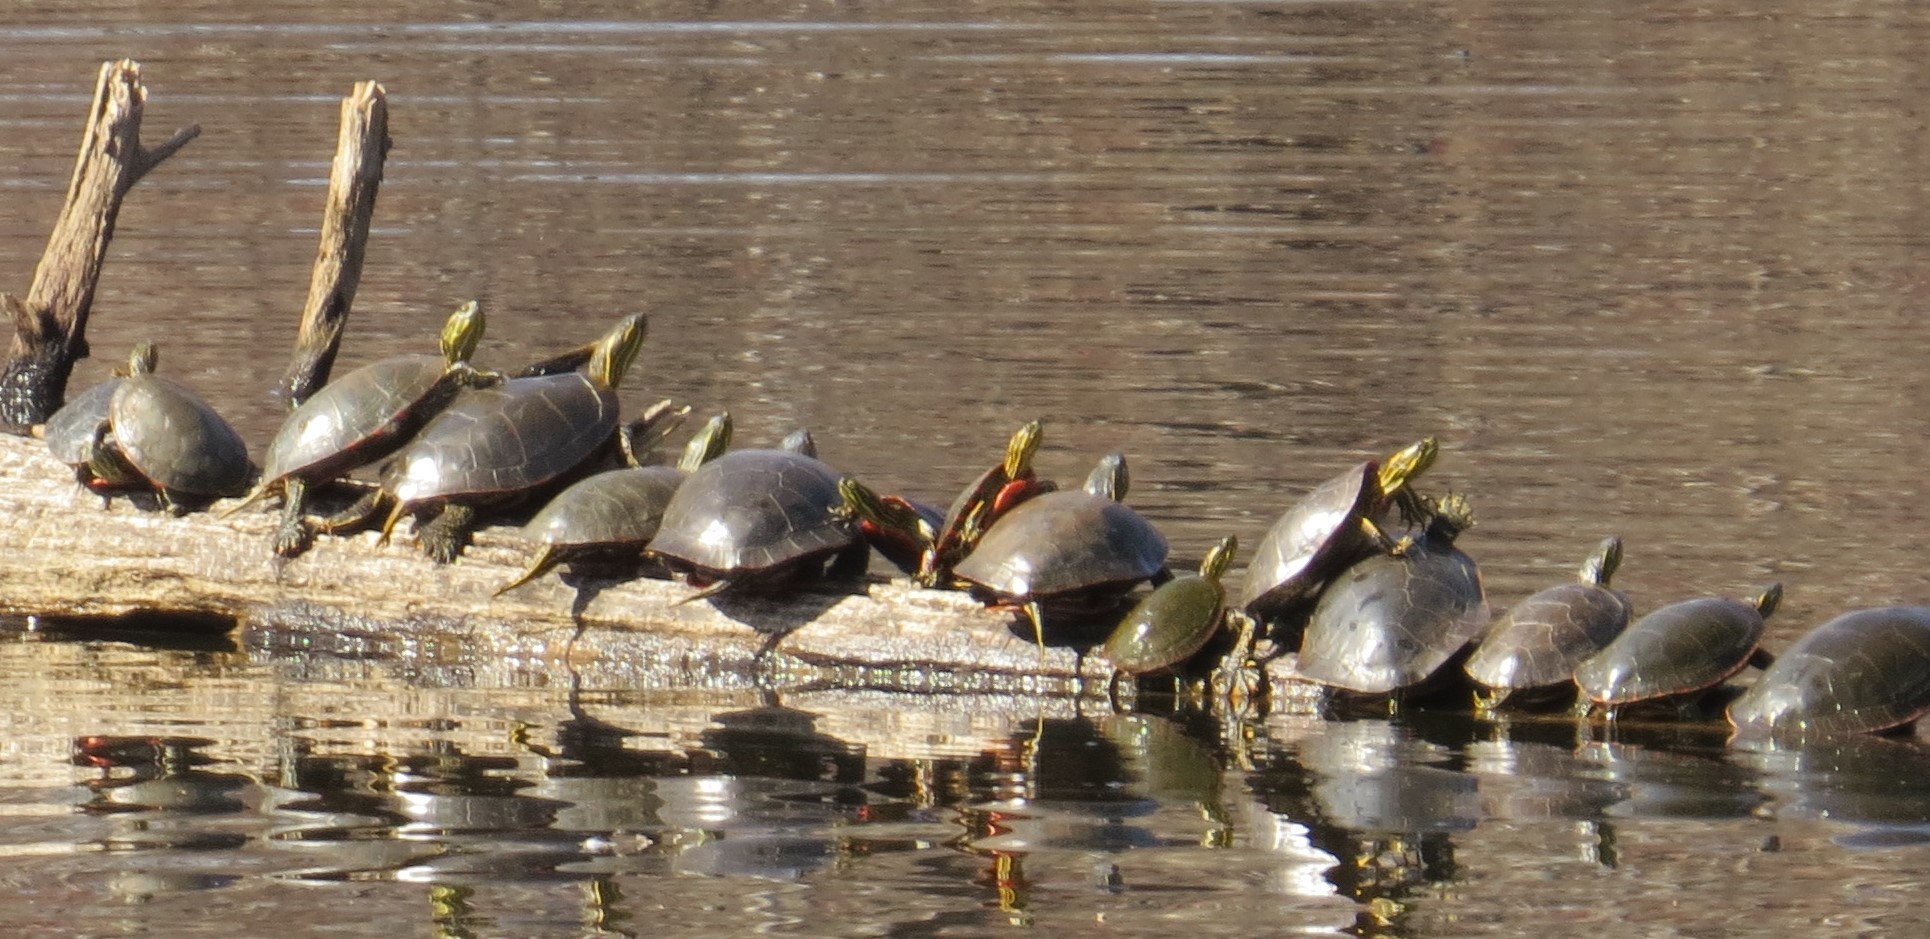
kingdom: Animalia
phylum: Chordata
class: Testudines
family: Emydidae
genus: Chrysemys
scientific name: Chrysemys picta
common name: Painted turtle
